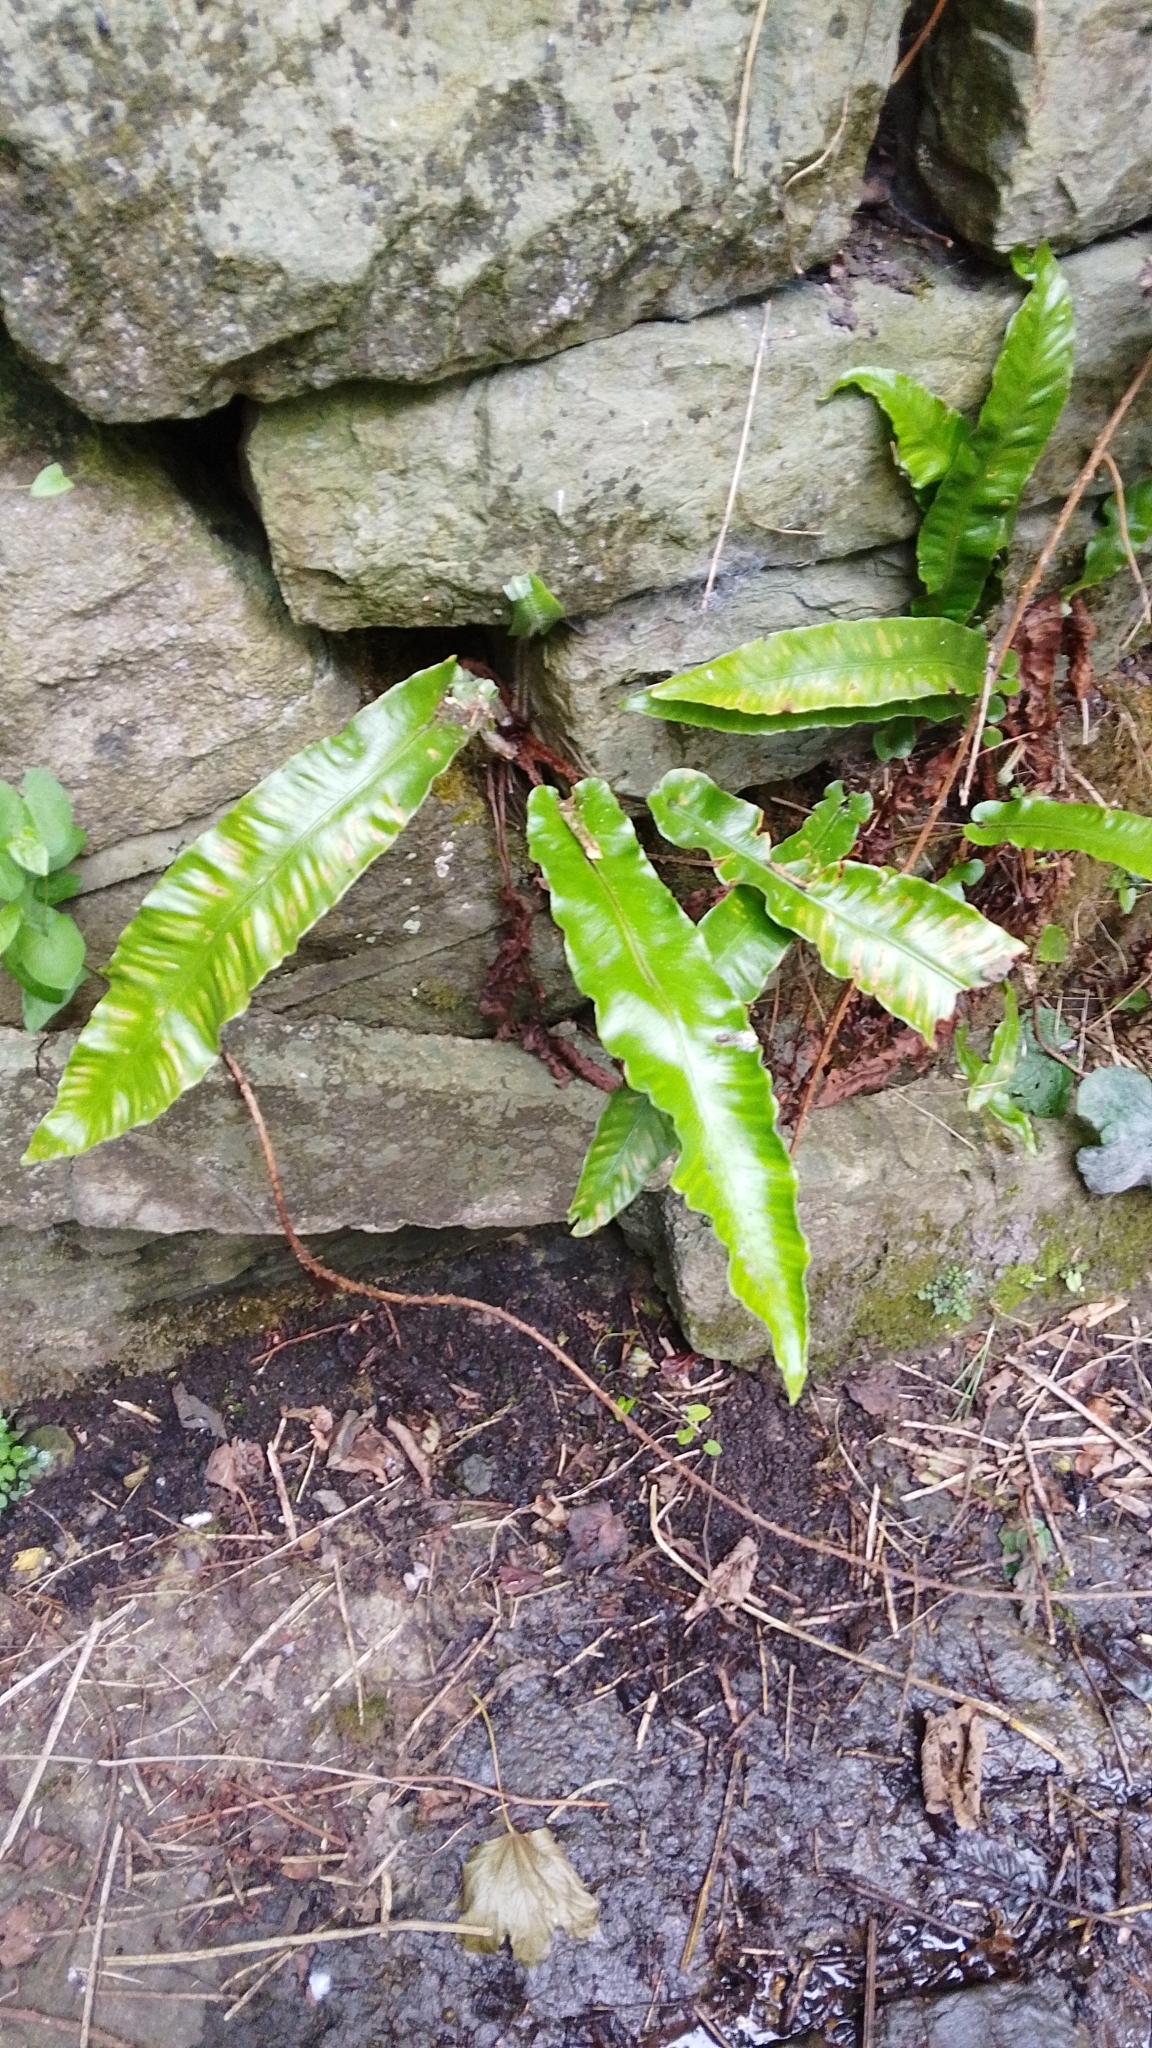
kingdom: Plantae
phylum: Tracheophyta
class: Polypodiopsida
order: Polypodiales
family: Aspleniaceae
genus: Asplenium
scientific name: Asplenium scolopendrium
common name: Hart's-tongue fern
